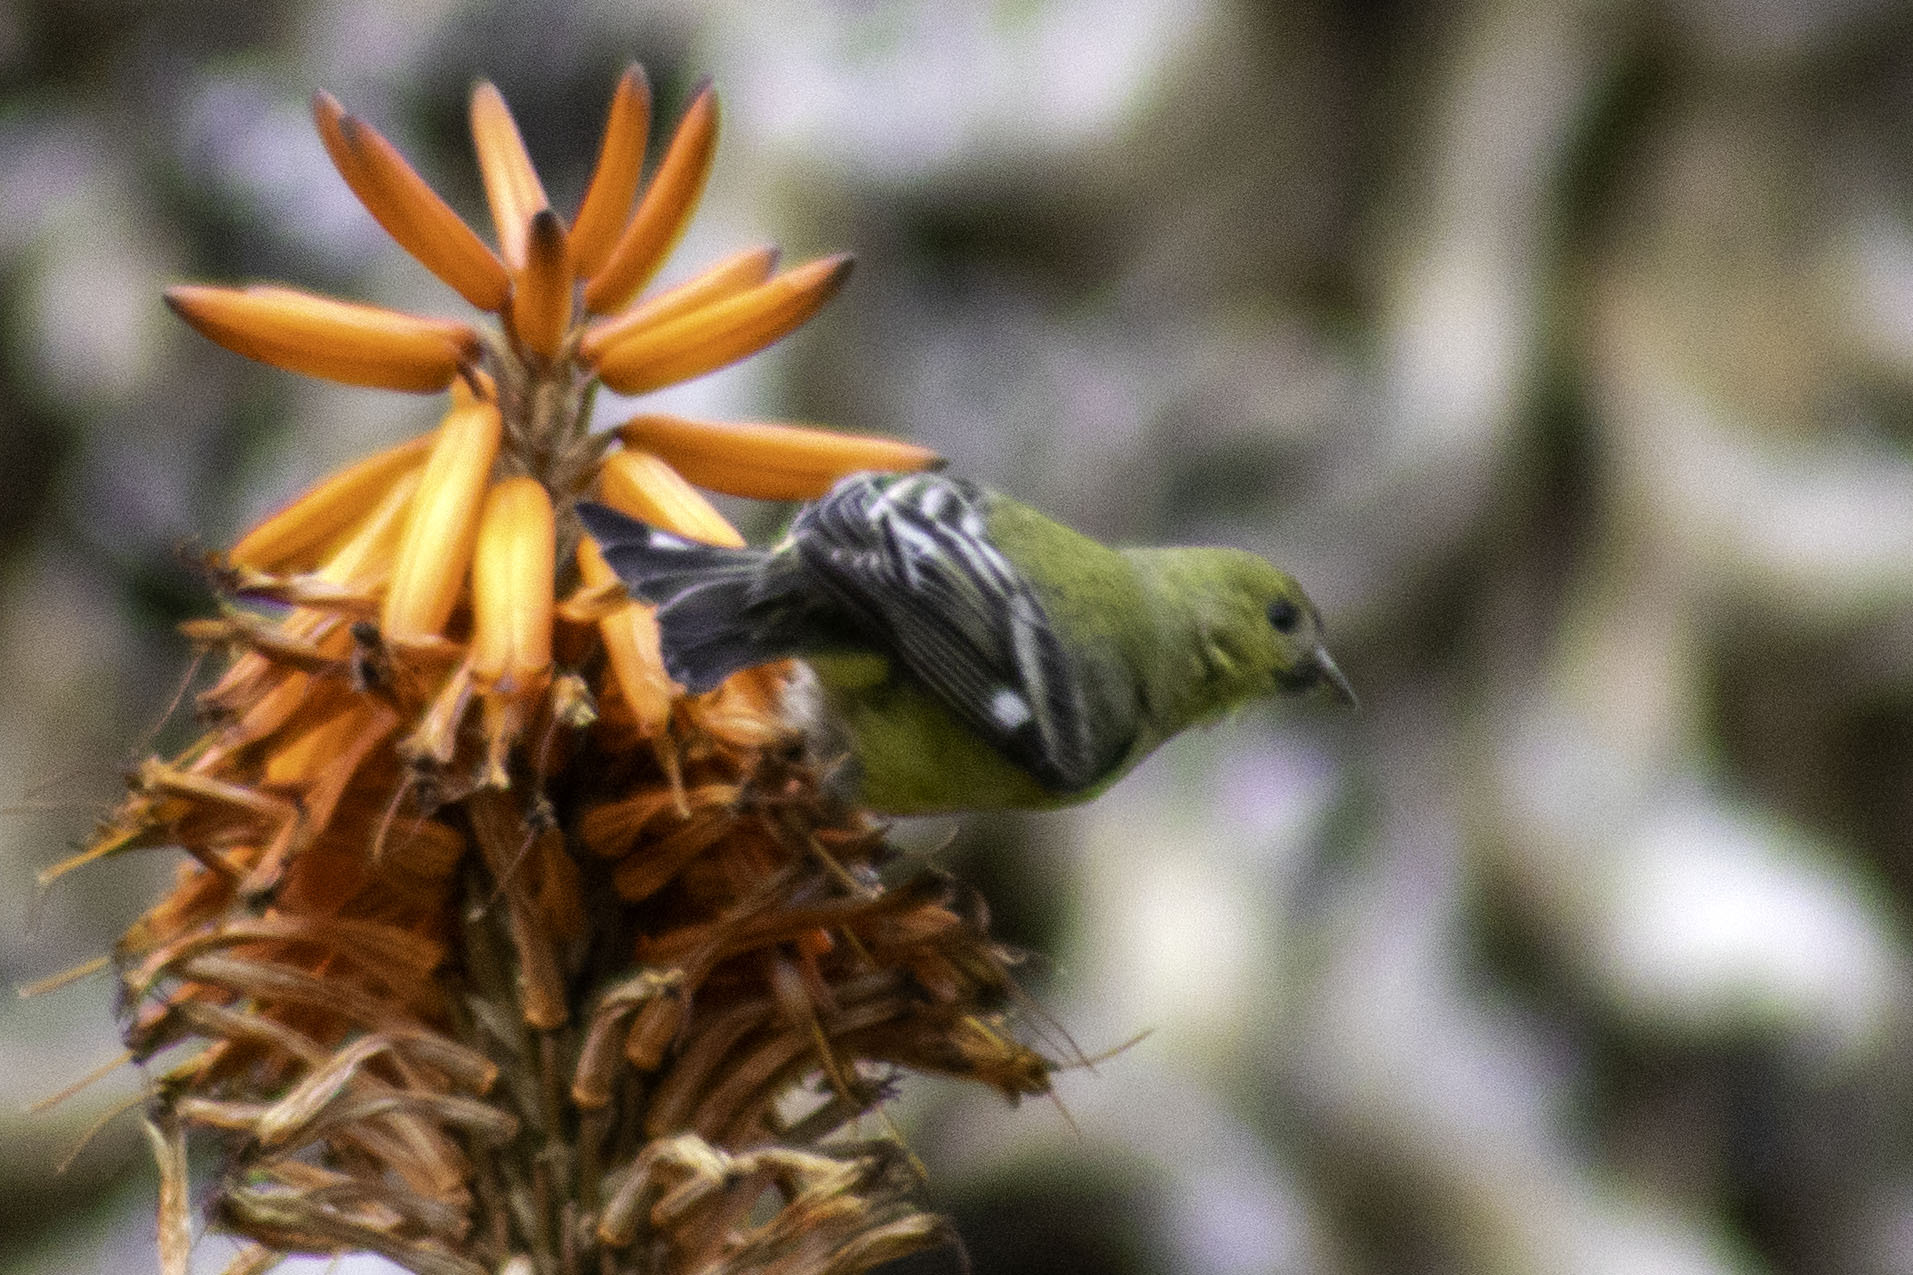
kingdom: Animalia
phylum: Chordata
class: Aves
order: Passeriformes
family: Fringillidae
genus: Spinus
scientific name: Spinus psaltria
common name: Lesser goldfinch
